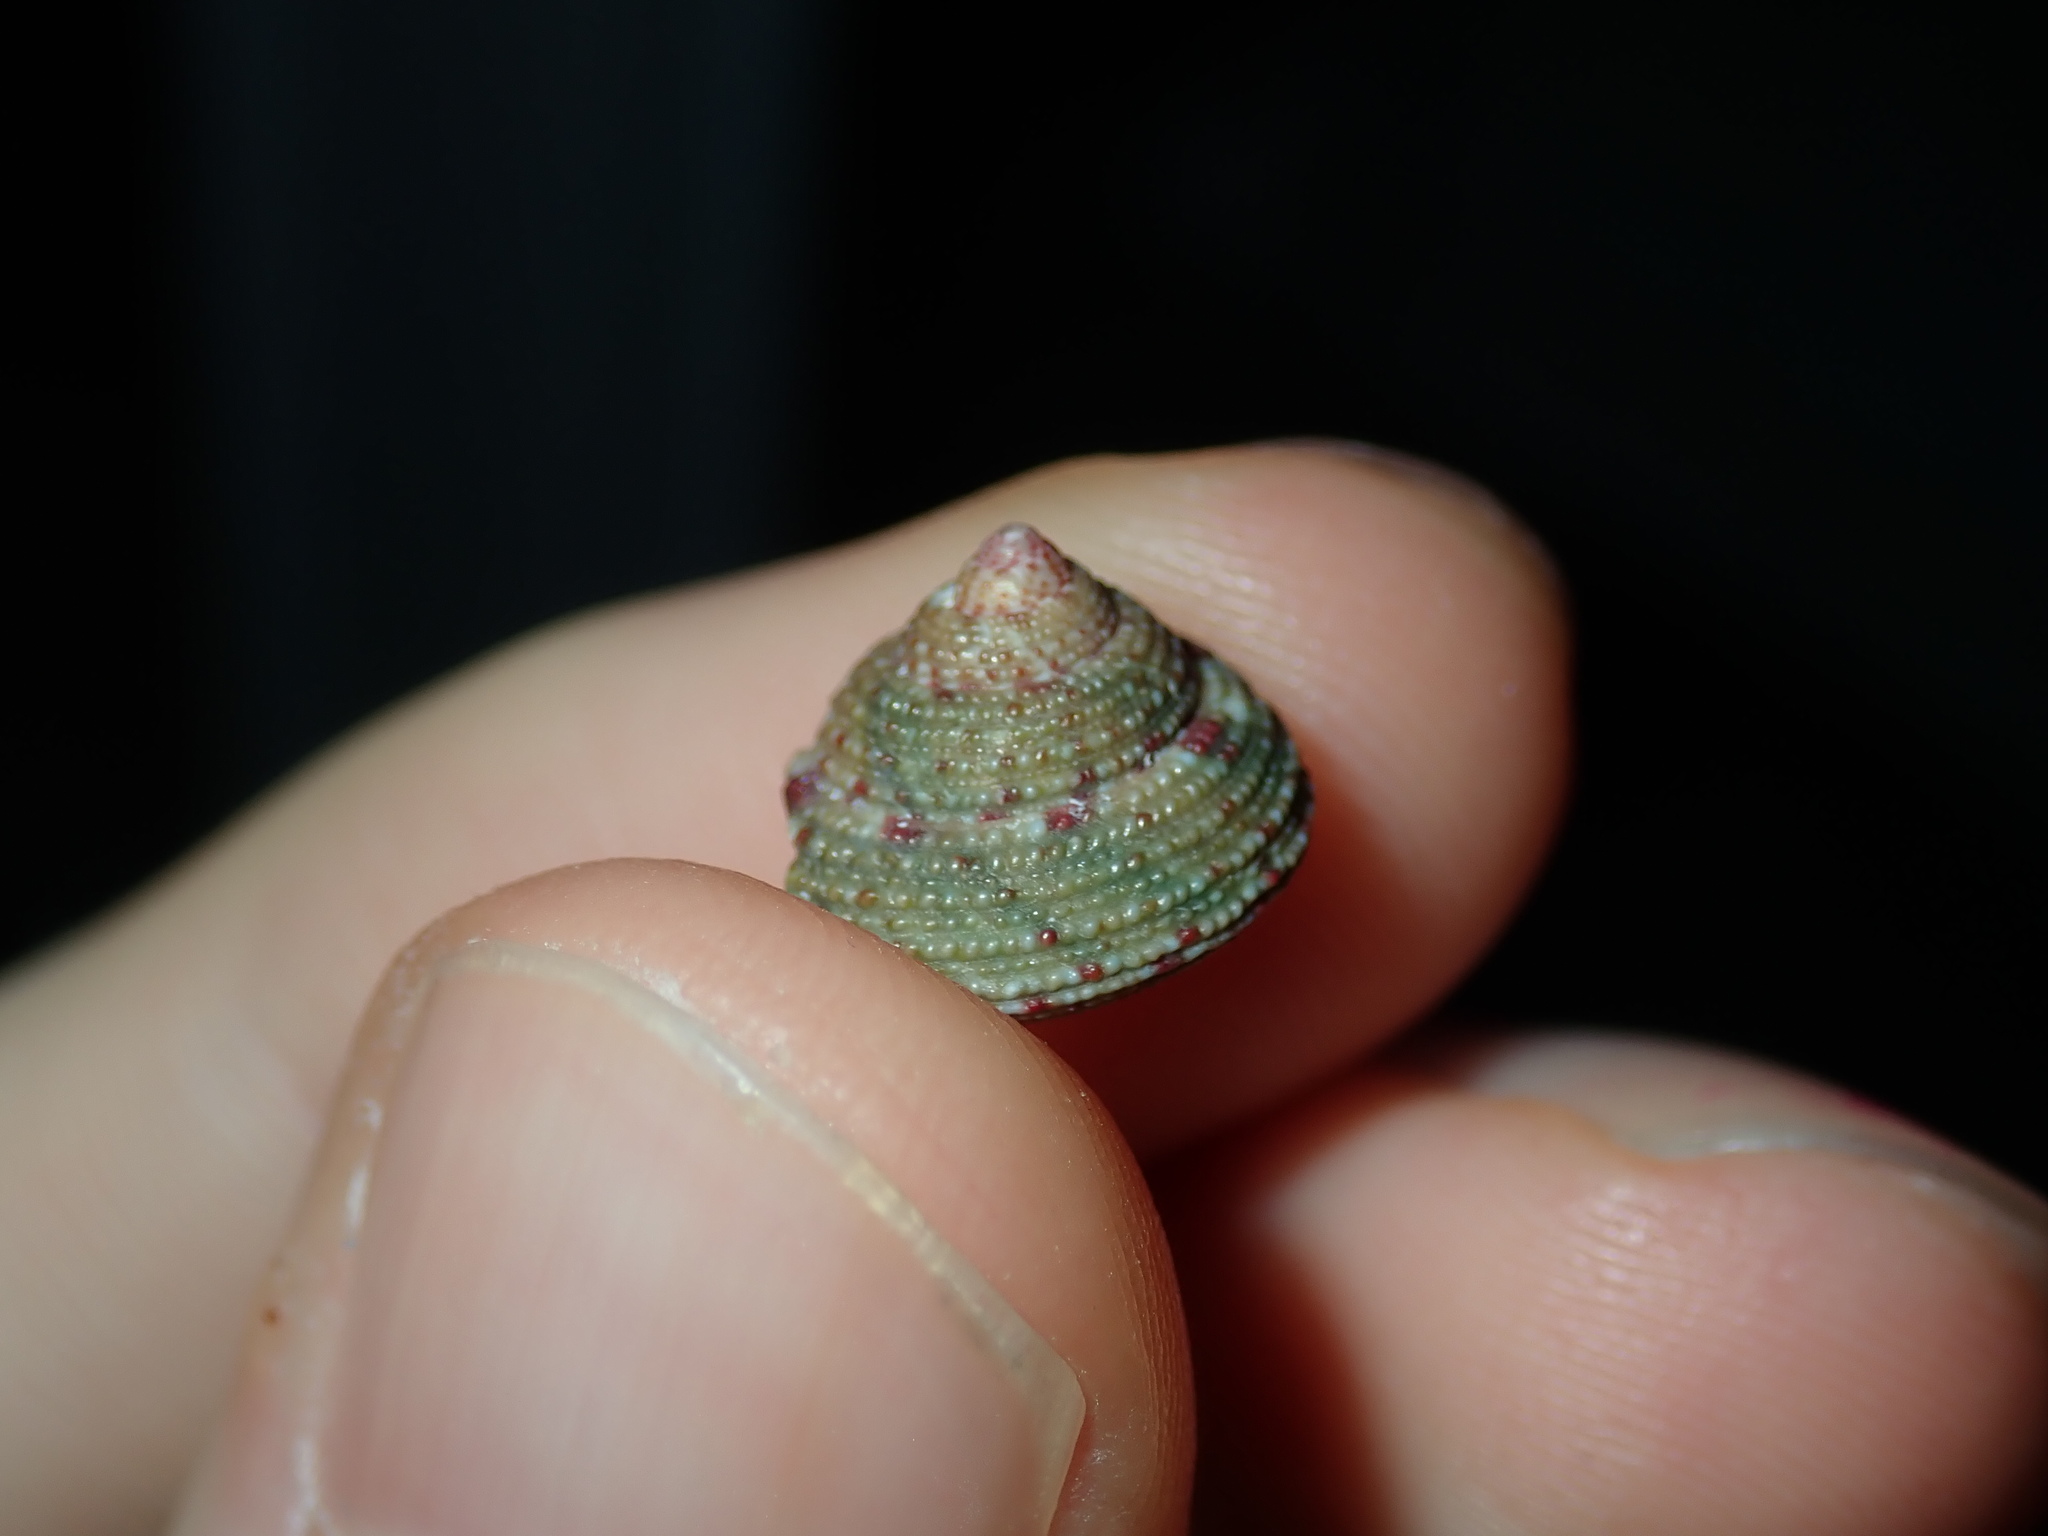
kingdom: Animalia
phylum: Mollusca
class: Gastropoda
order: Trochida
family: Trochidae
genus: Clanculus
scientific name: Clanculus clangulus
